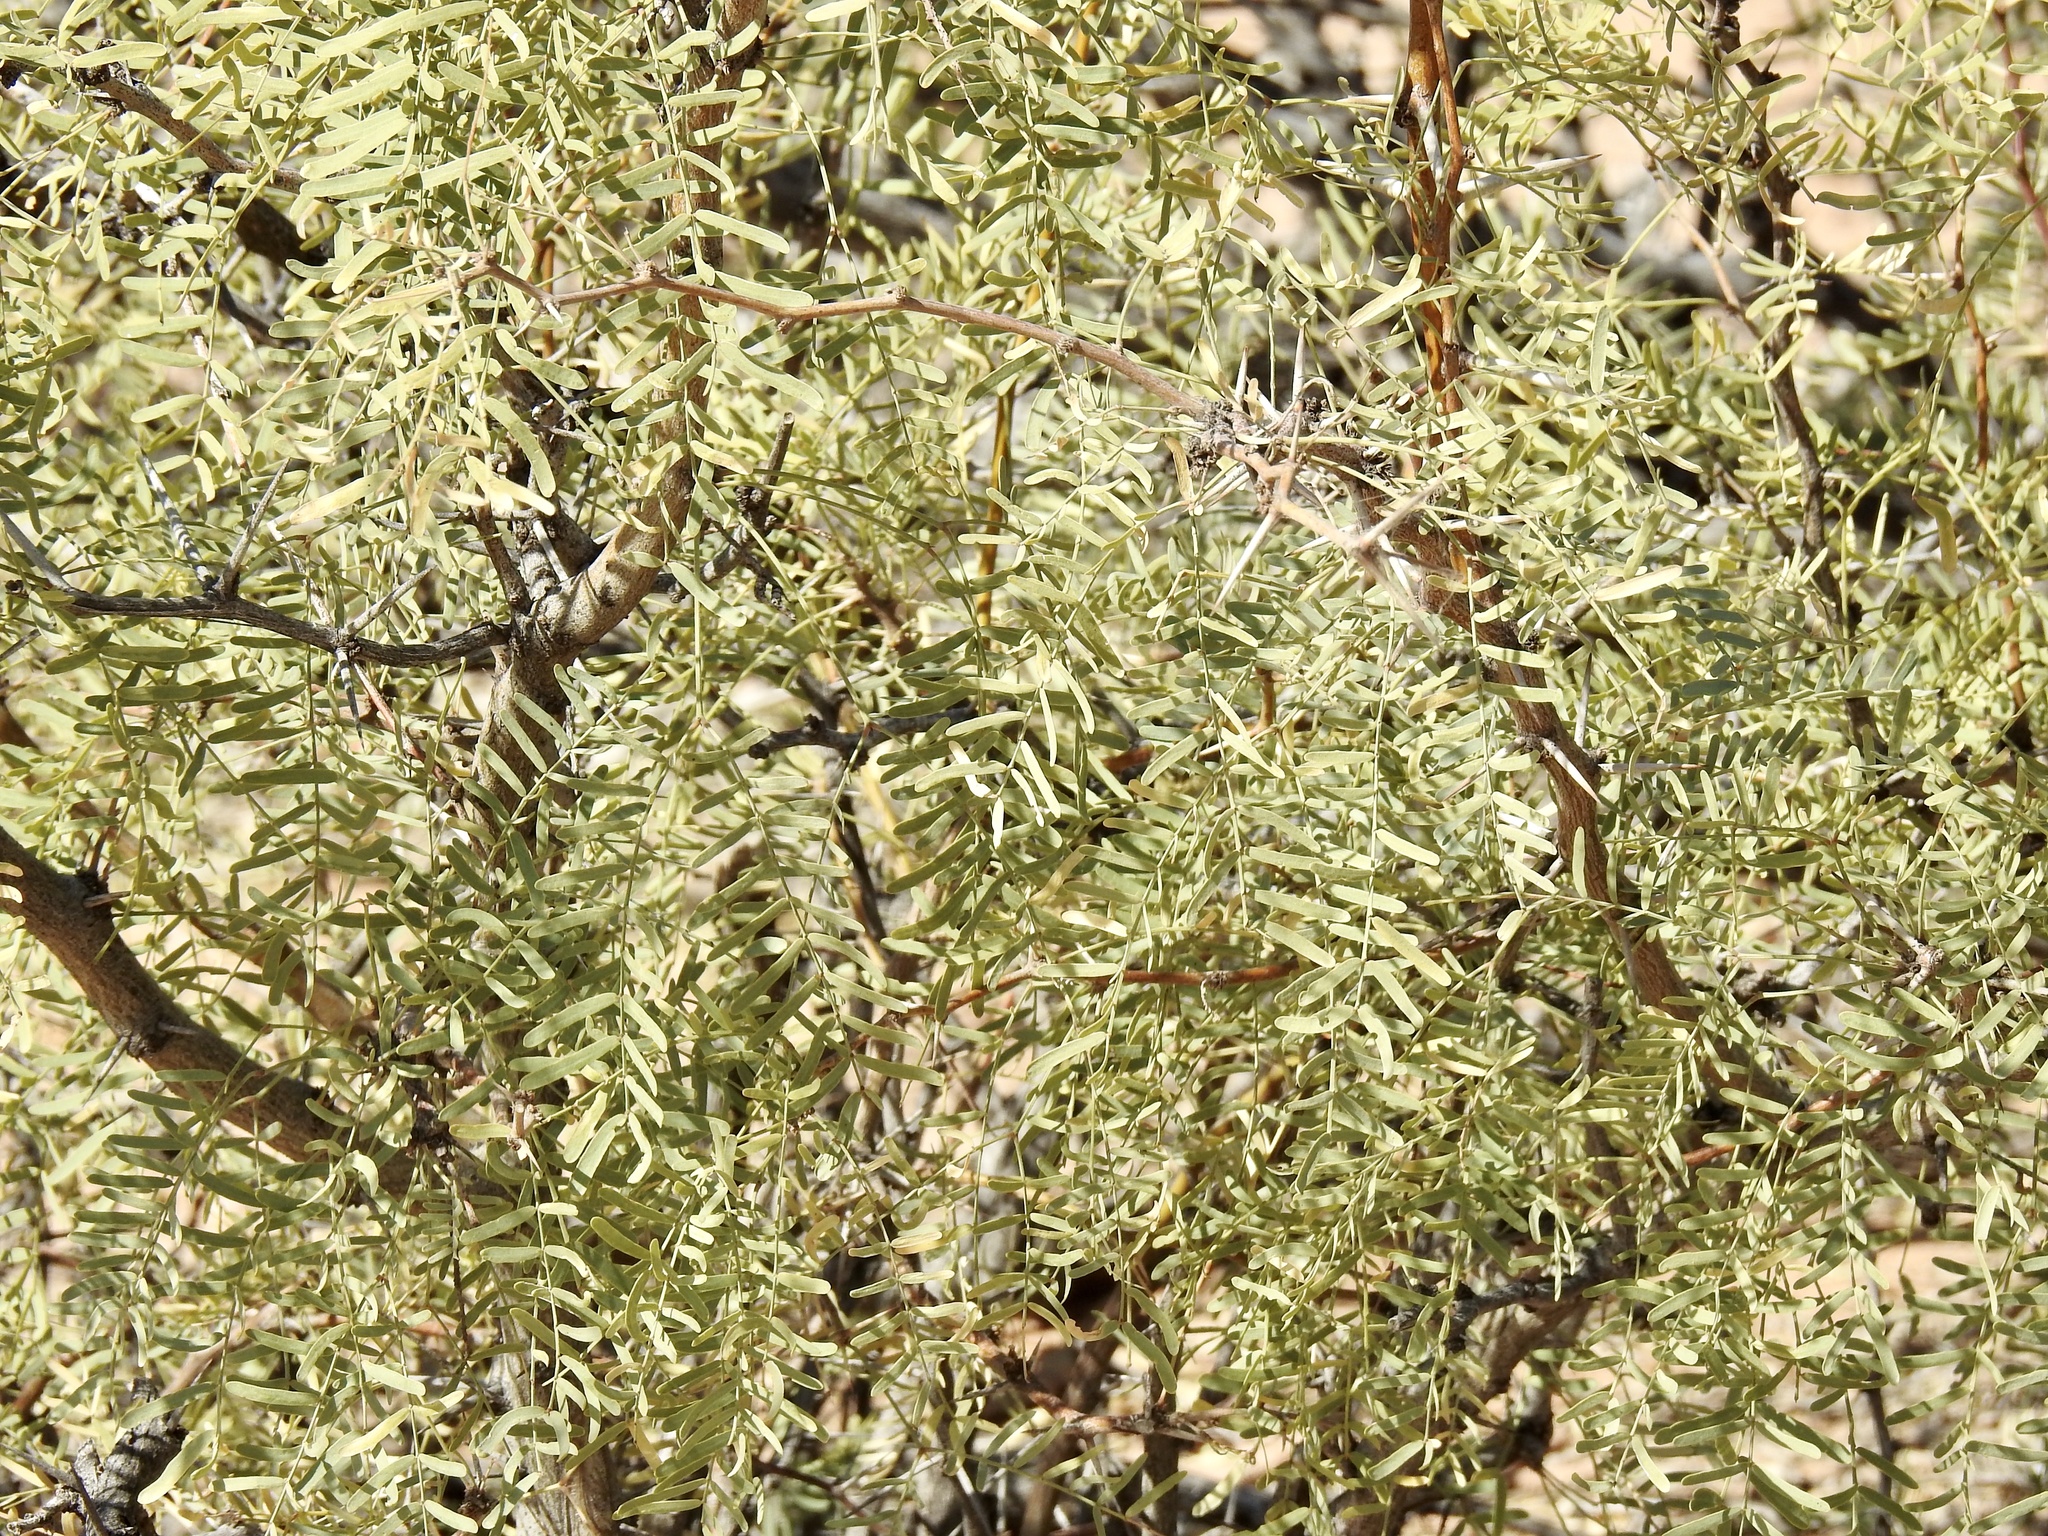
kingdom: Plantae
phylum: Tracheophyta
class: Magnoliopsida
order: Fabales
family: Fabaceae
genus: Prosopis
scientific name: Prosopis glandulosa
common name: Honey mesquite
